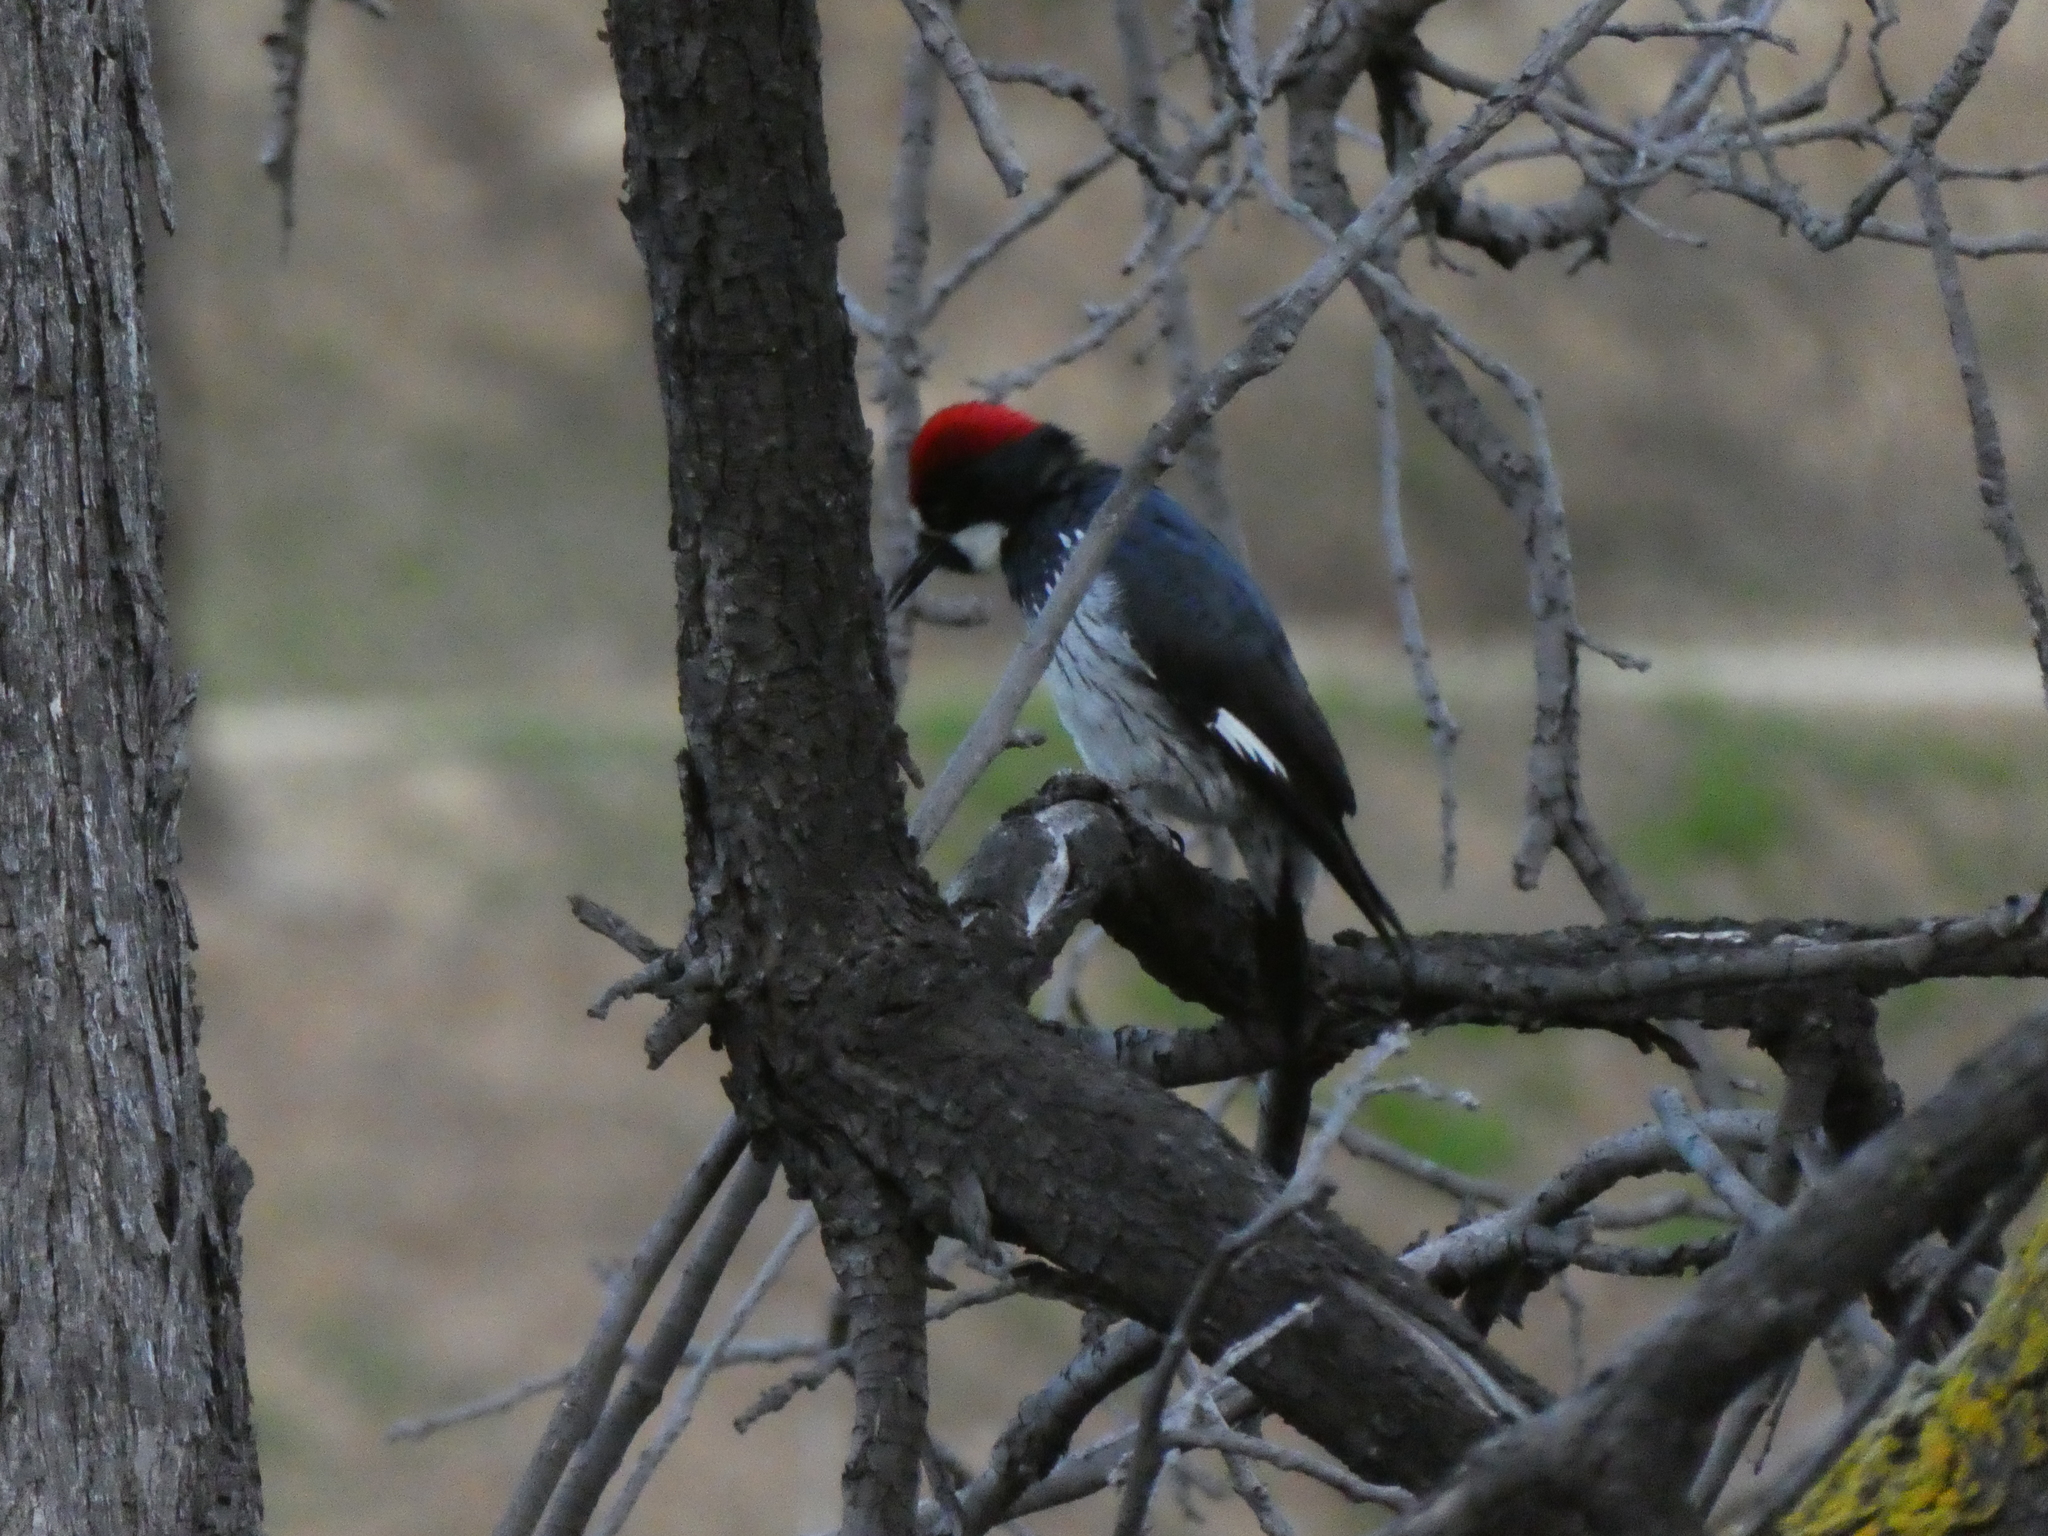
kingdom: Animalia
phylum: Chordata
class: Aves
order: Piciformes
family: Picidae
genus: Melanerpes
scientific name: Melanerpes formicivorus
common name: Acorn woodpecker
